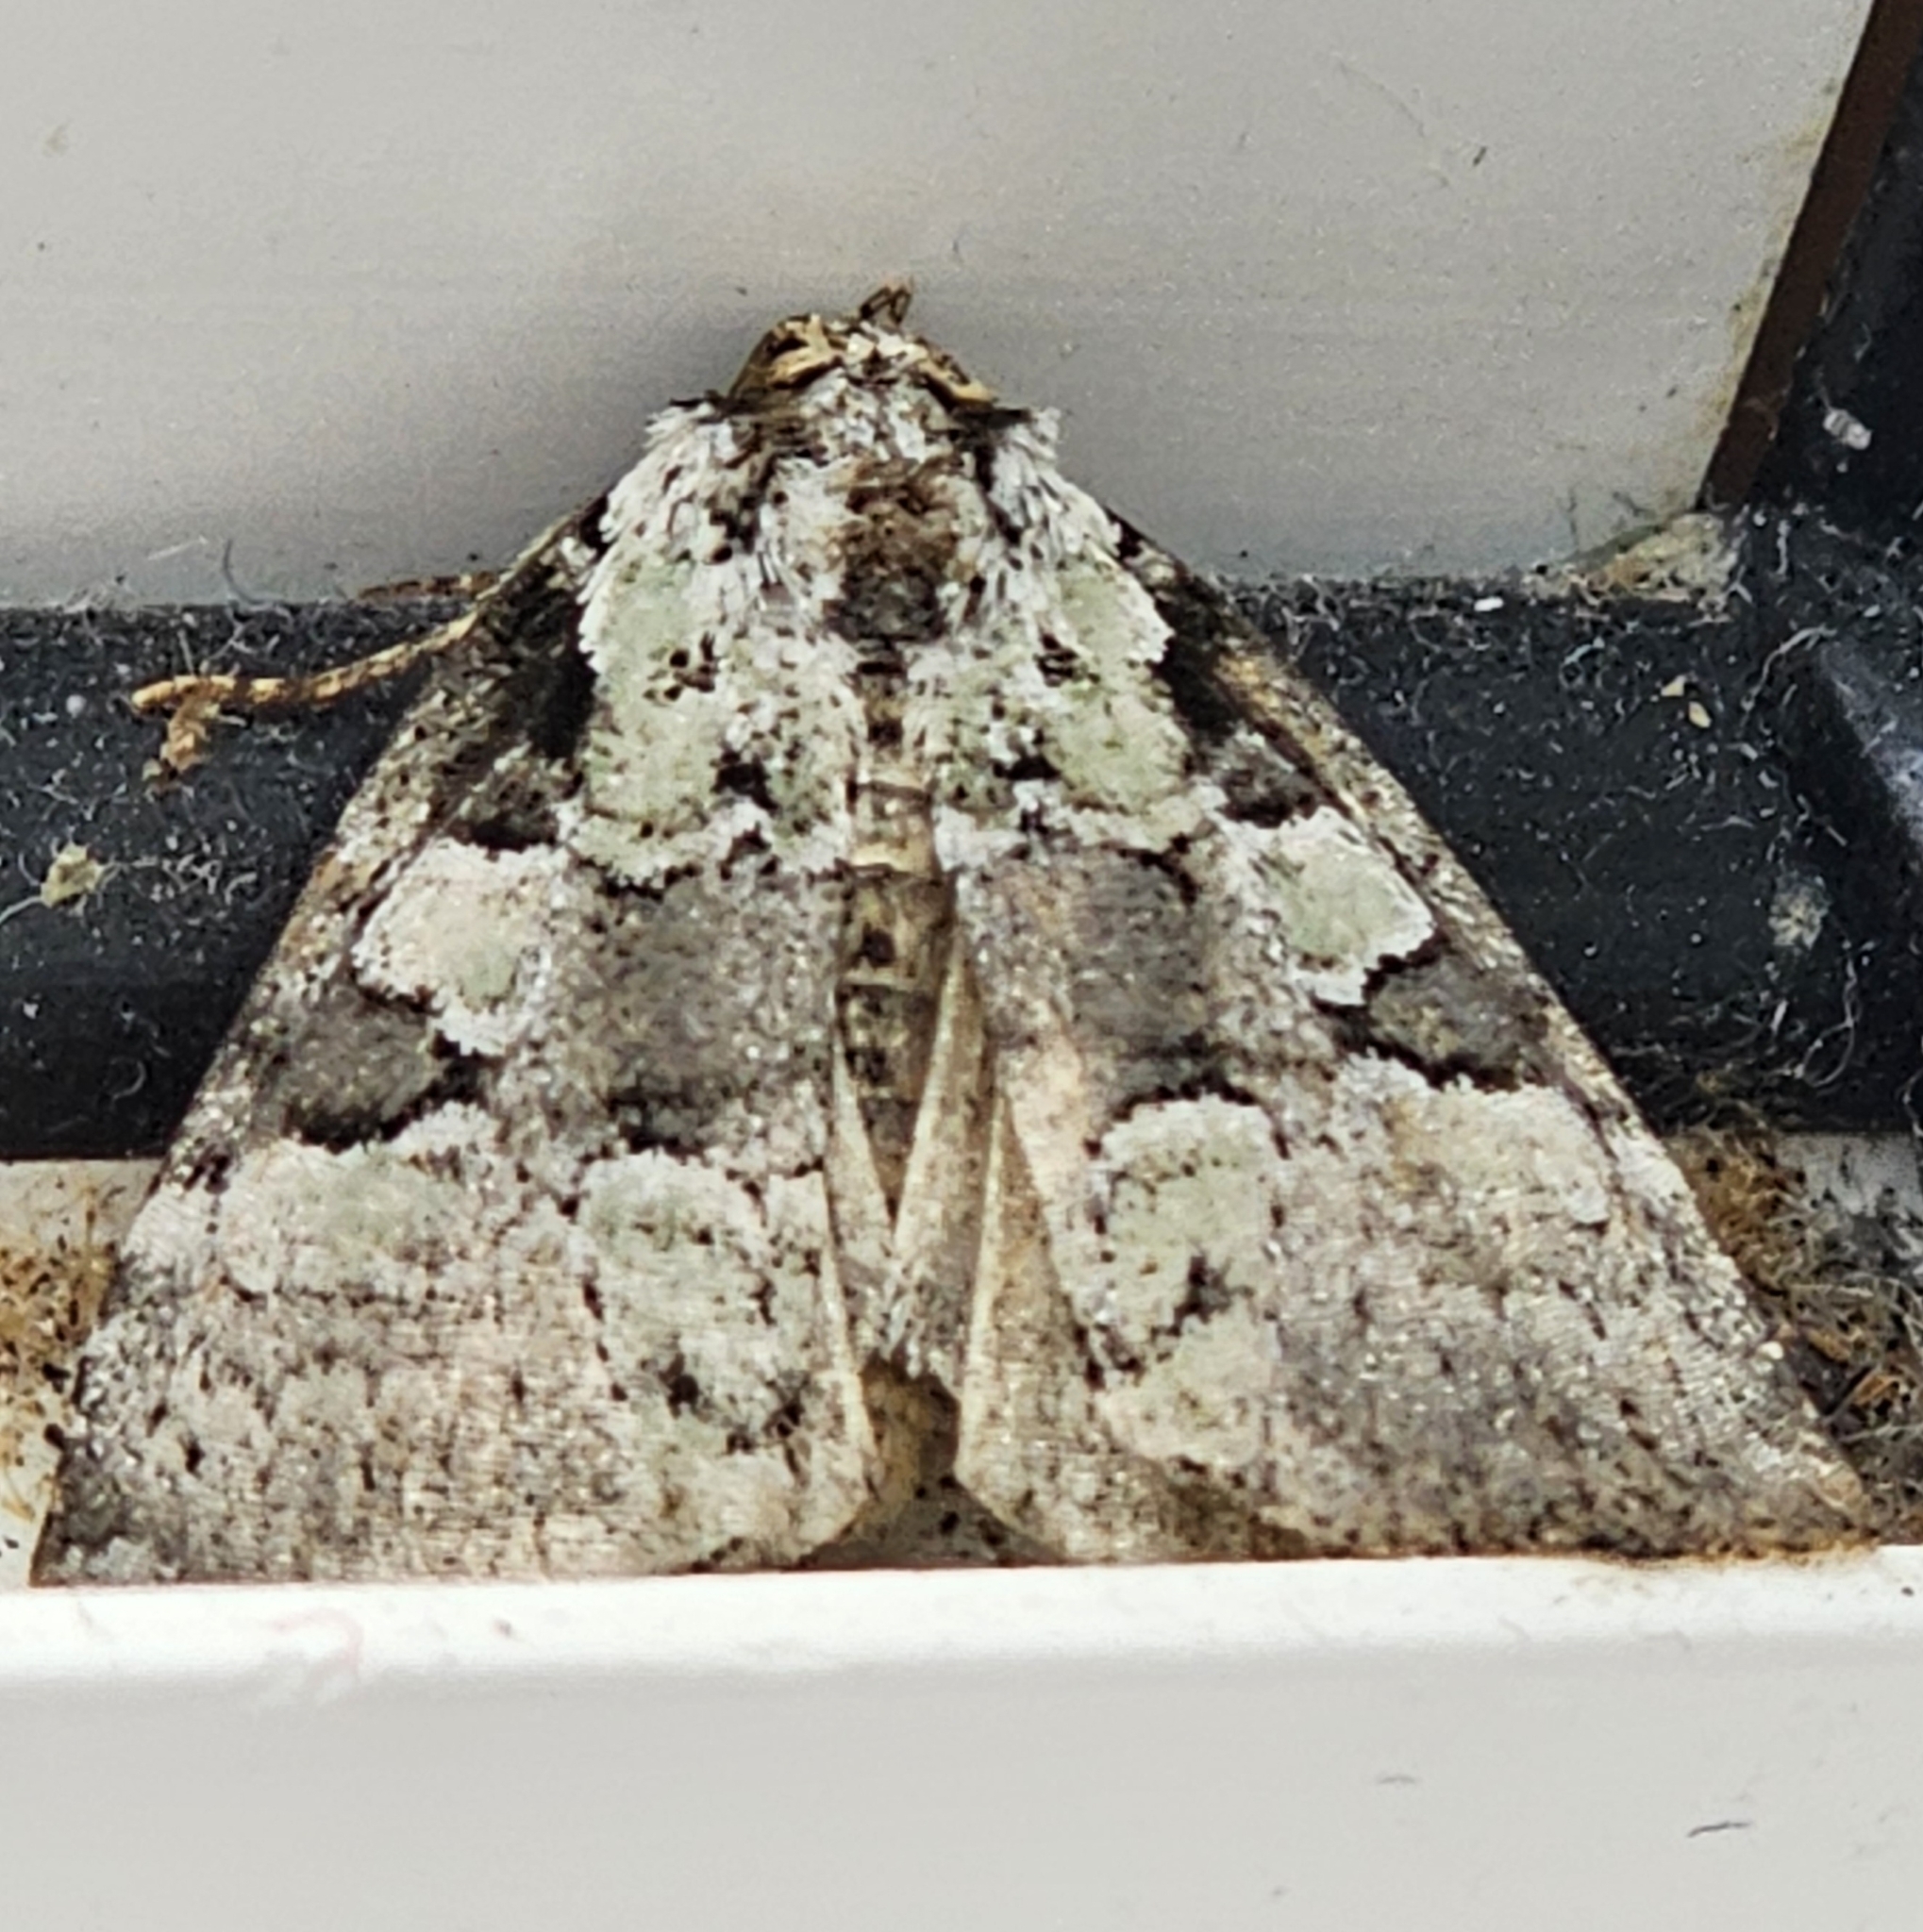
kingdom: Animalia
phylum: Arthropoda
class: Insecta
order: Lepidoptera
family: Noctuidae
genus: Leuconycta
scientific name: Leuconycta lepidula
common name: Marbled-green leuconycta moth
